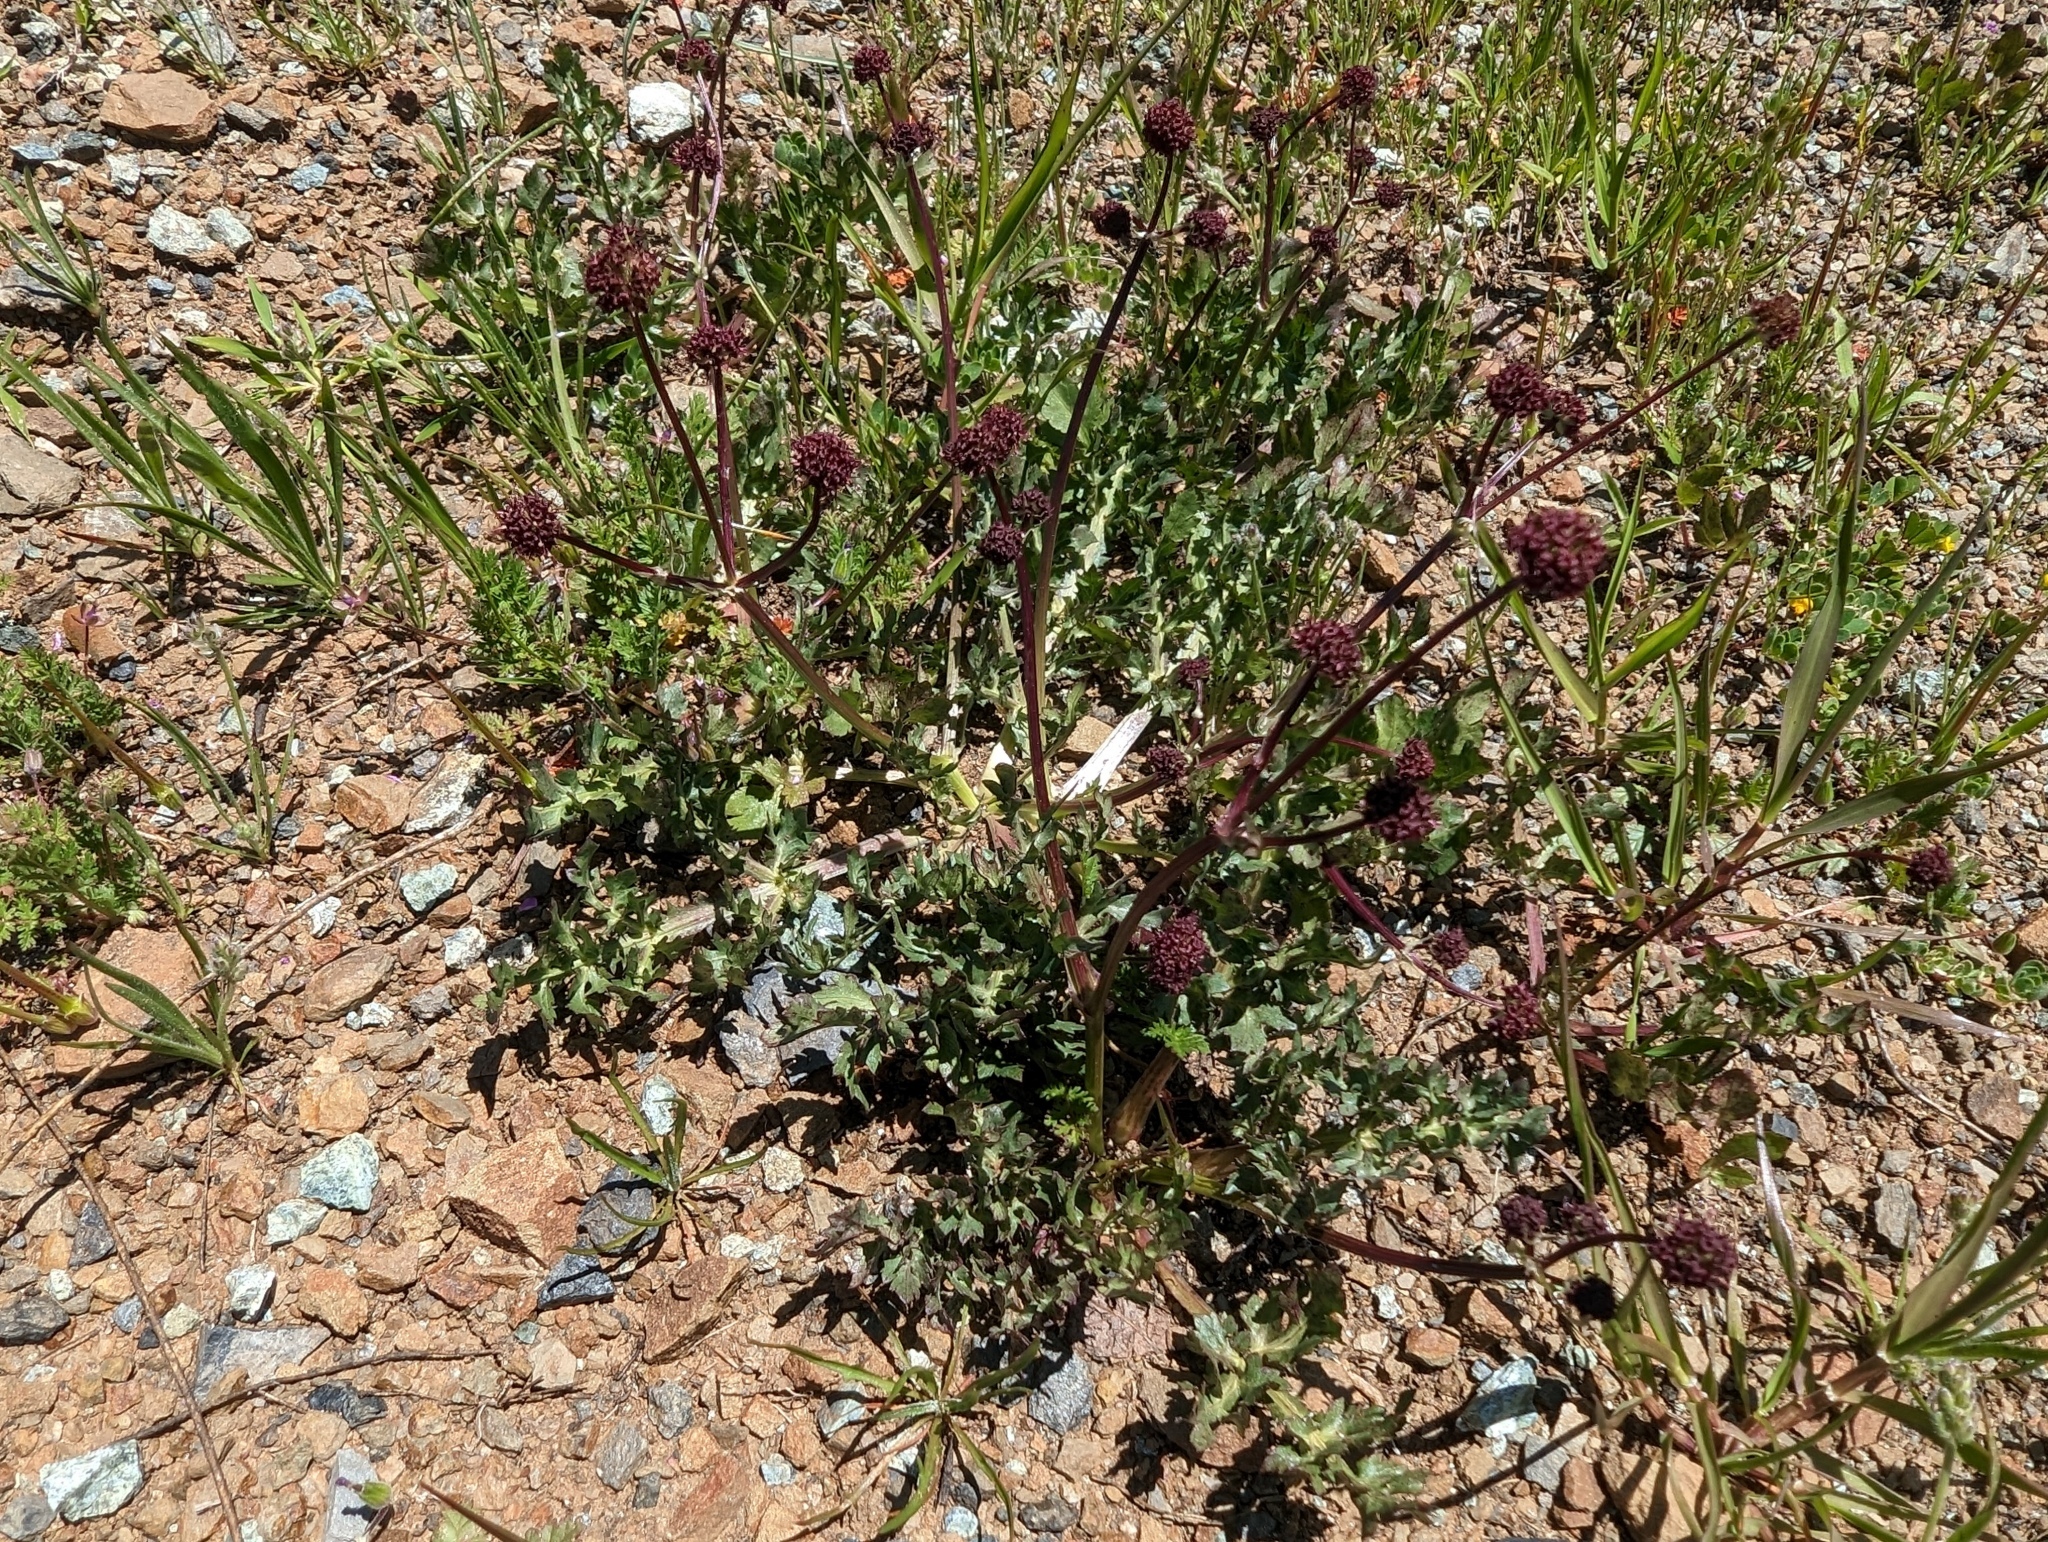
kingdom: Plantae
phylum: Tracheophyta
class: Magnoliopsida
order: Apiales
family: Apiaceae
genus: Sanicula
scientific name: Sanicula bipinnatifida
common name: Shoe-buttons
